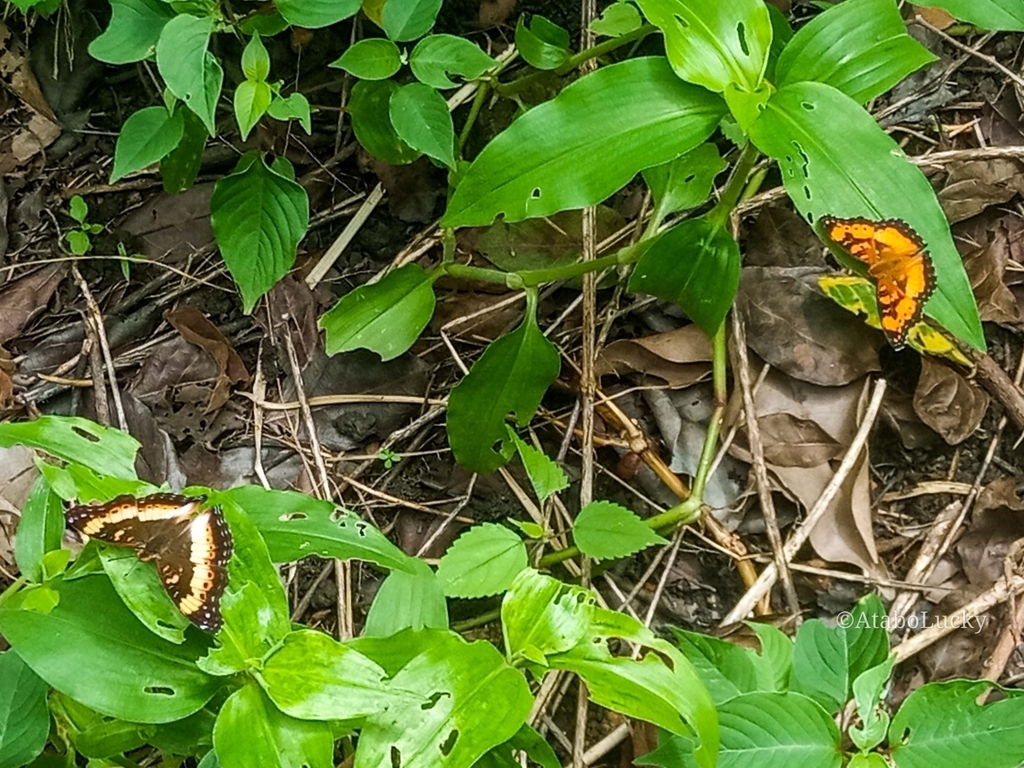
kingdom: Animalia
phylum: Arthropoda
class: Insecta
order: Lepidoptera
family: Nymphalidae
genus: Junonia
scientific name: Junonia antilope
